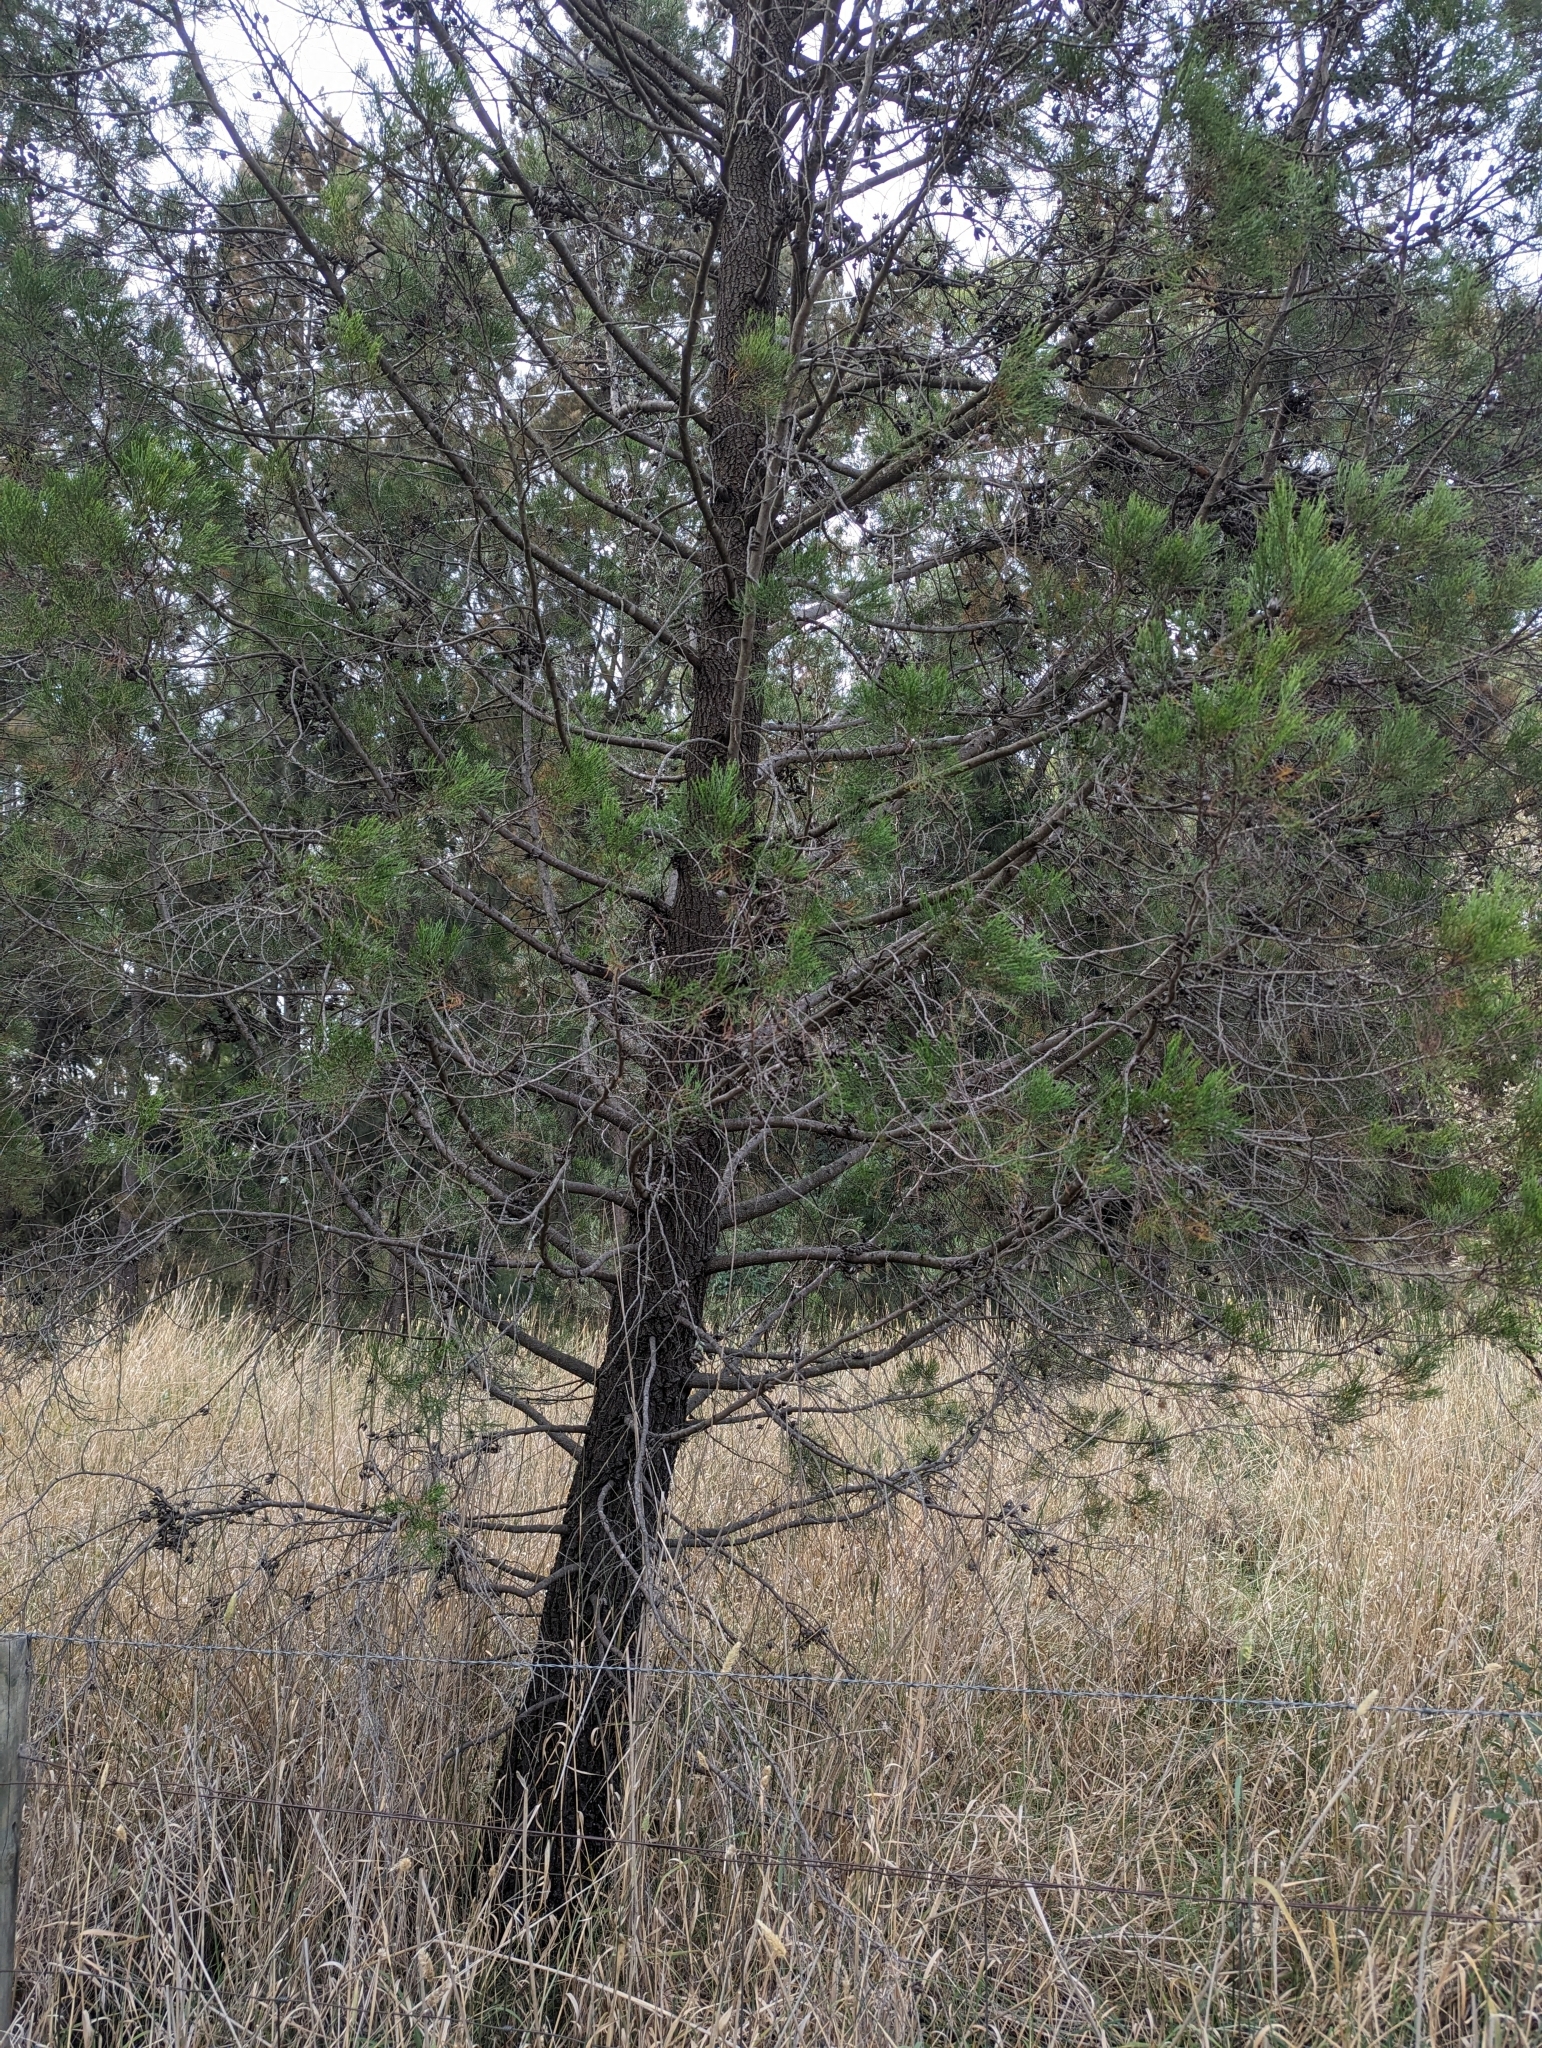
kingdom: Plantae
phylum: Tracheophyta
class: Pinopsida
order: Pinales
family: Cupressaceae
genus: Callitris
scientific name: Callitris endlicheri
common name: Black cypress-pine
